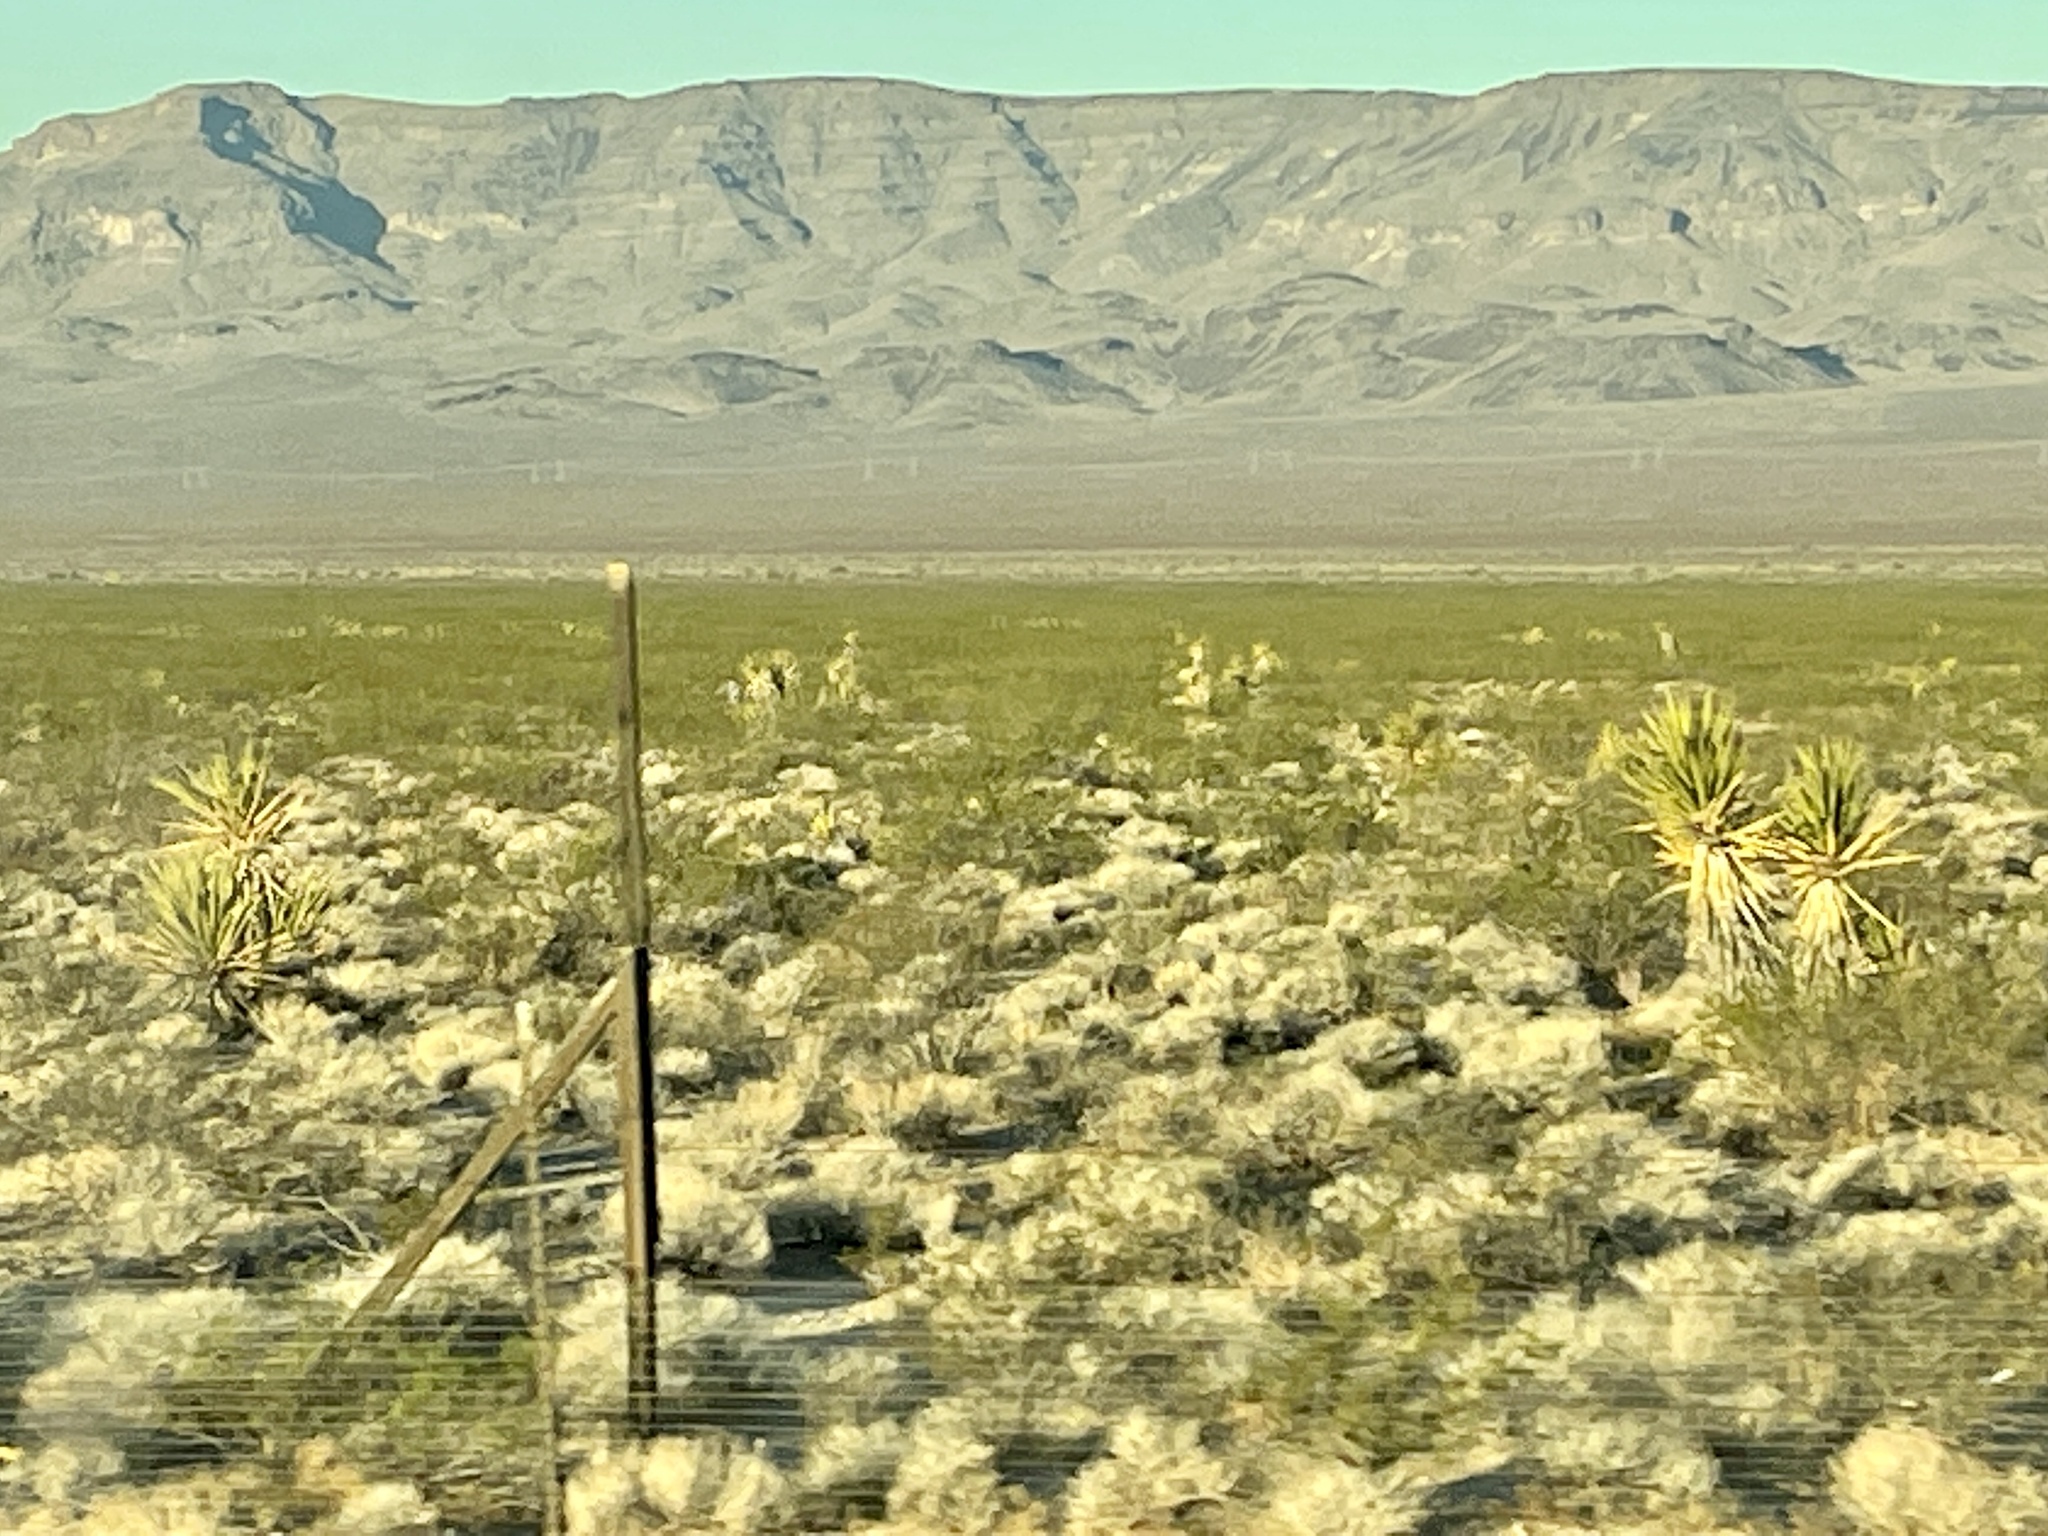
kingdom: Plantae
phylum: Tracheophyta
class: Liliopsida
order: Asparagales
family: Asparagaceae
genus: Yucca
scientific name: Yucca schidigera
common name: Mojave yucca
